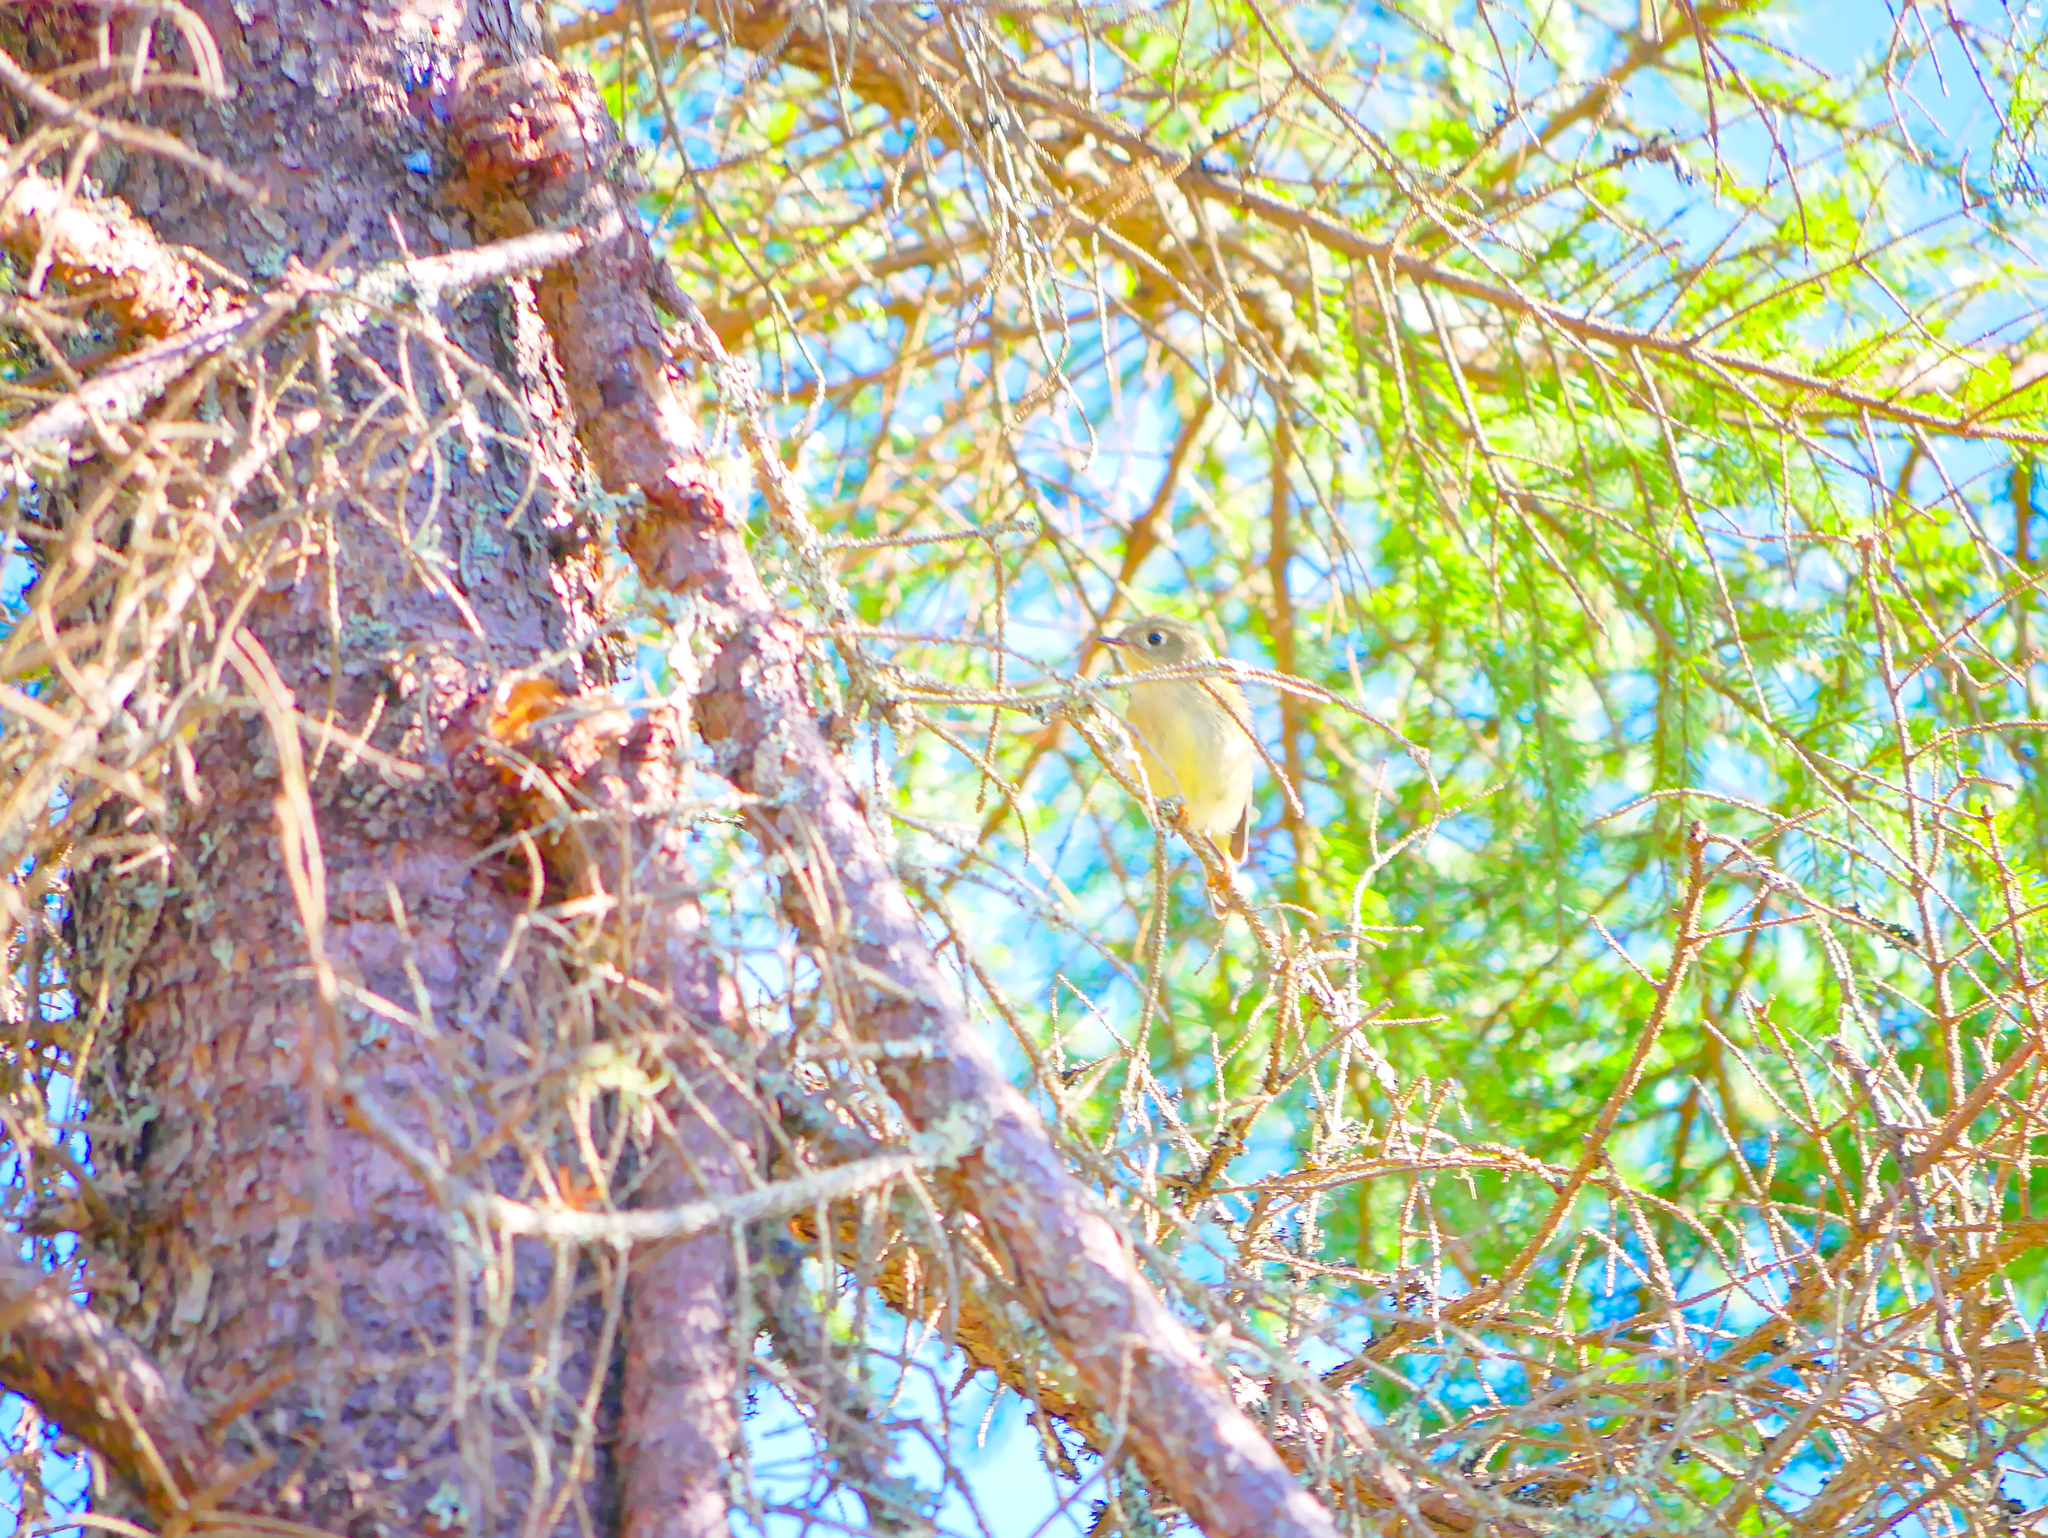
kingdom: Animalia
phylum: Chordata
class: Aves
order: Passeriformes
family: Regulidae
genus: Regulus
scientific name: Regulus calendula
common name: Ruby-crowned kinglet
